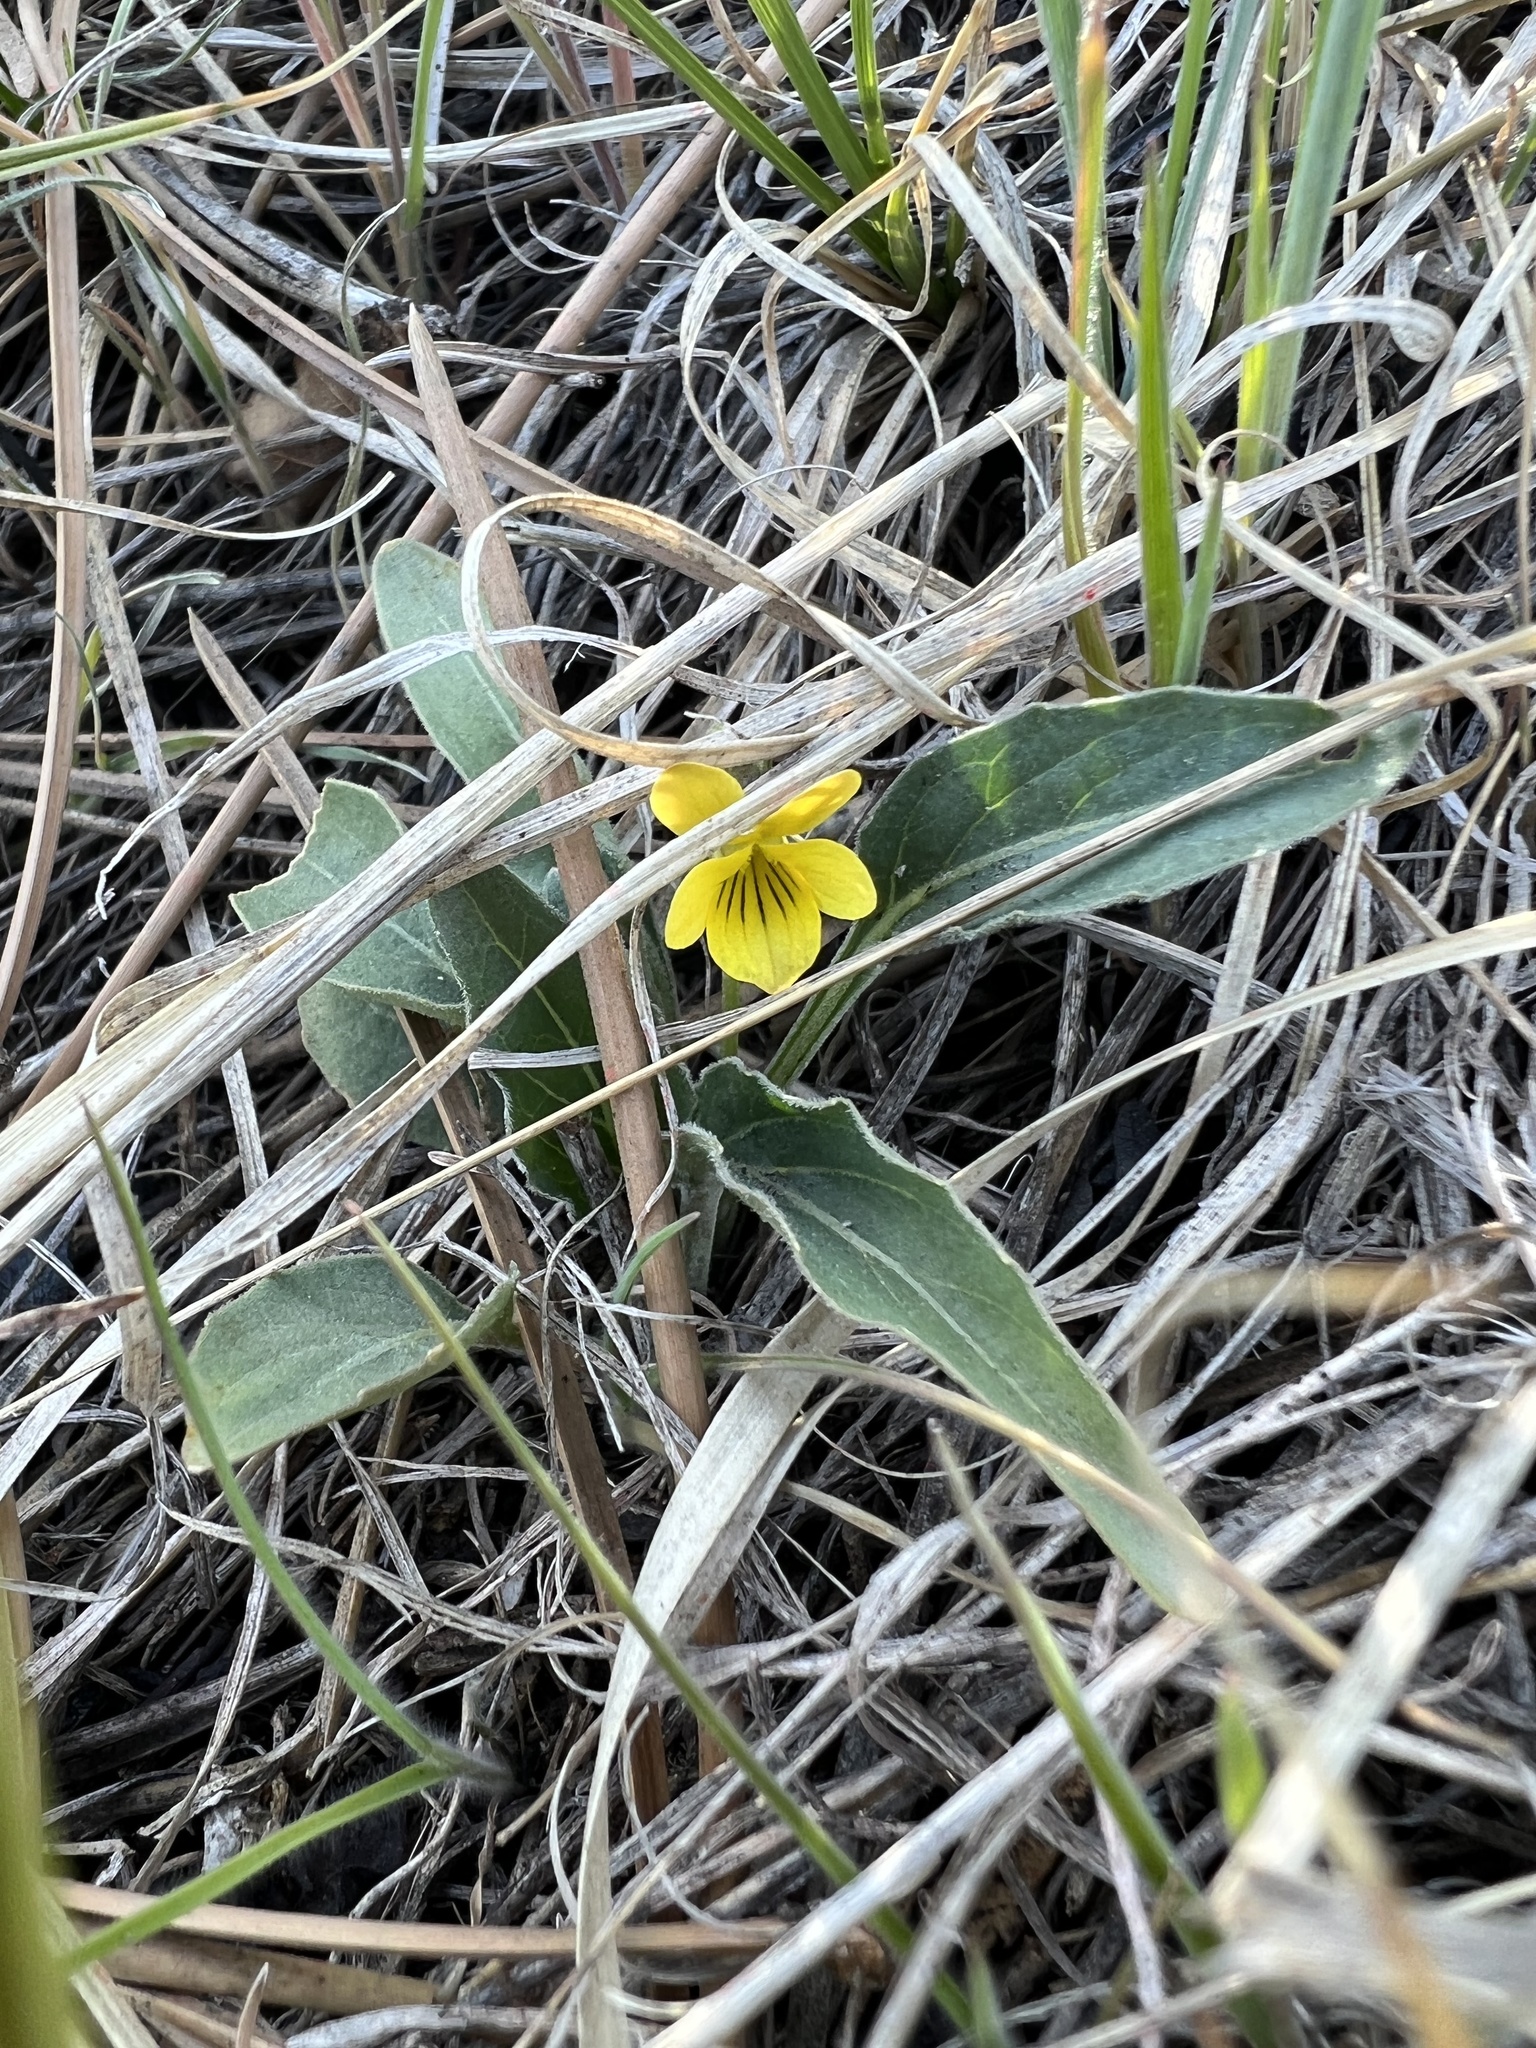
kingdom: Plantae
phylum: Tracheophyta
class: Magnoliopsida
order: Malpighiales
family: Violaceae
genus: Viola
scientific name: Viola nuttallii
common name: Yellow prairie violet
